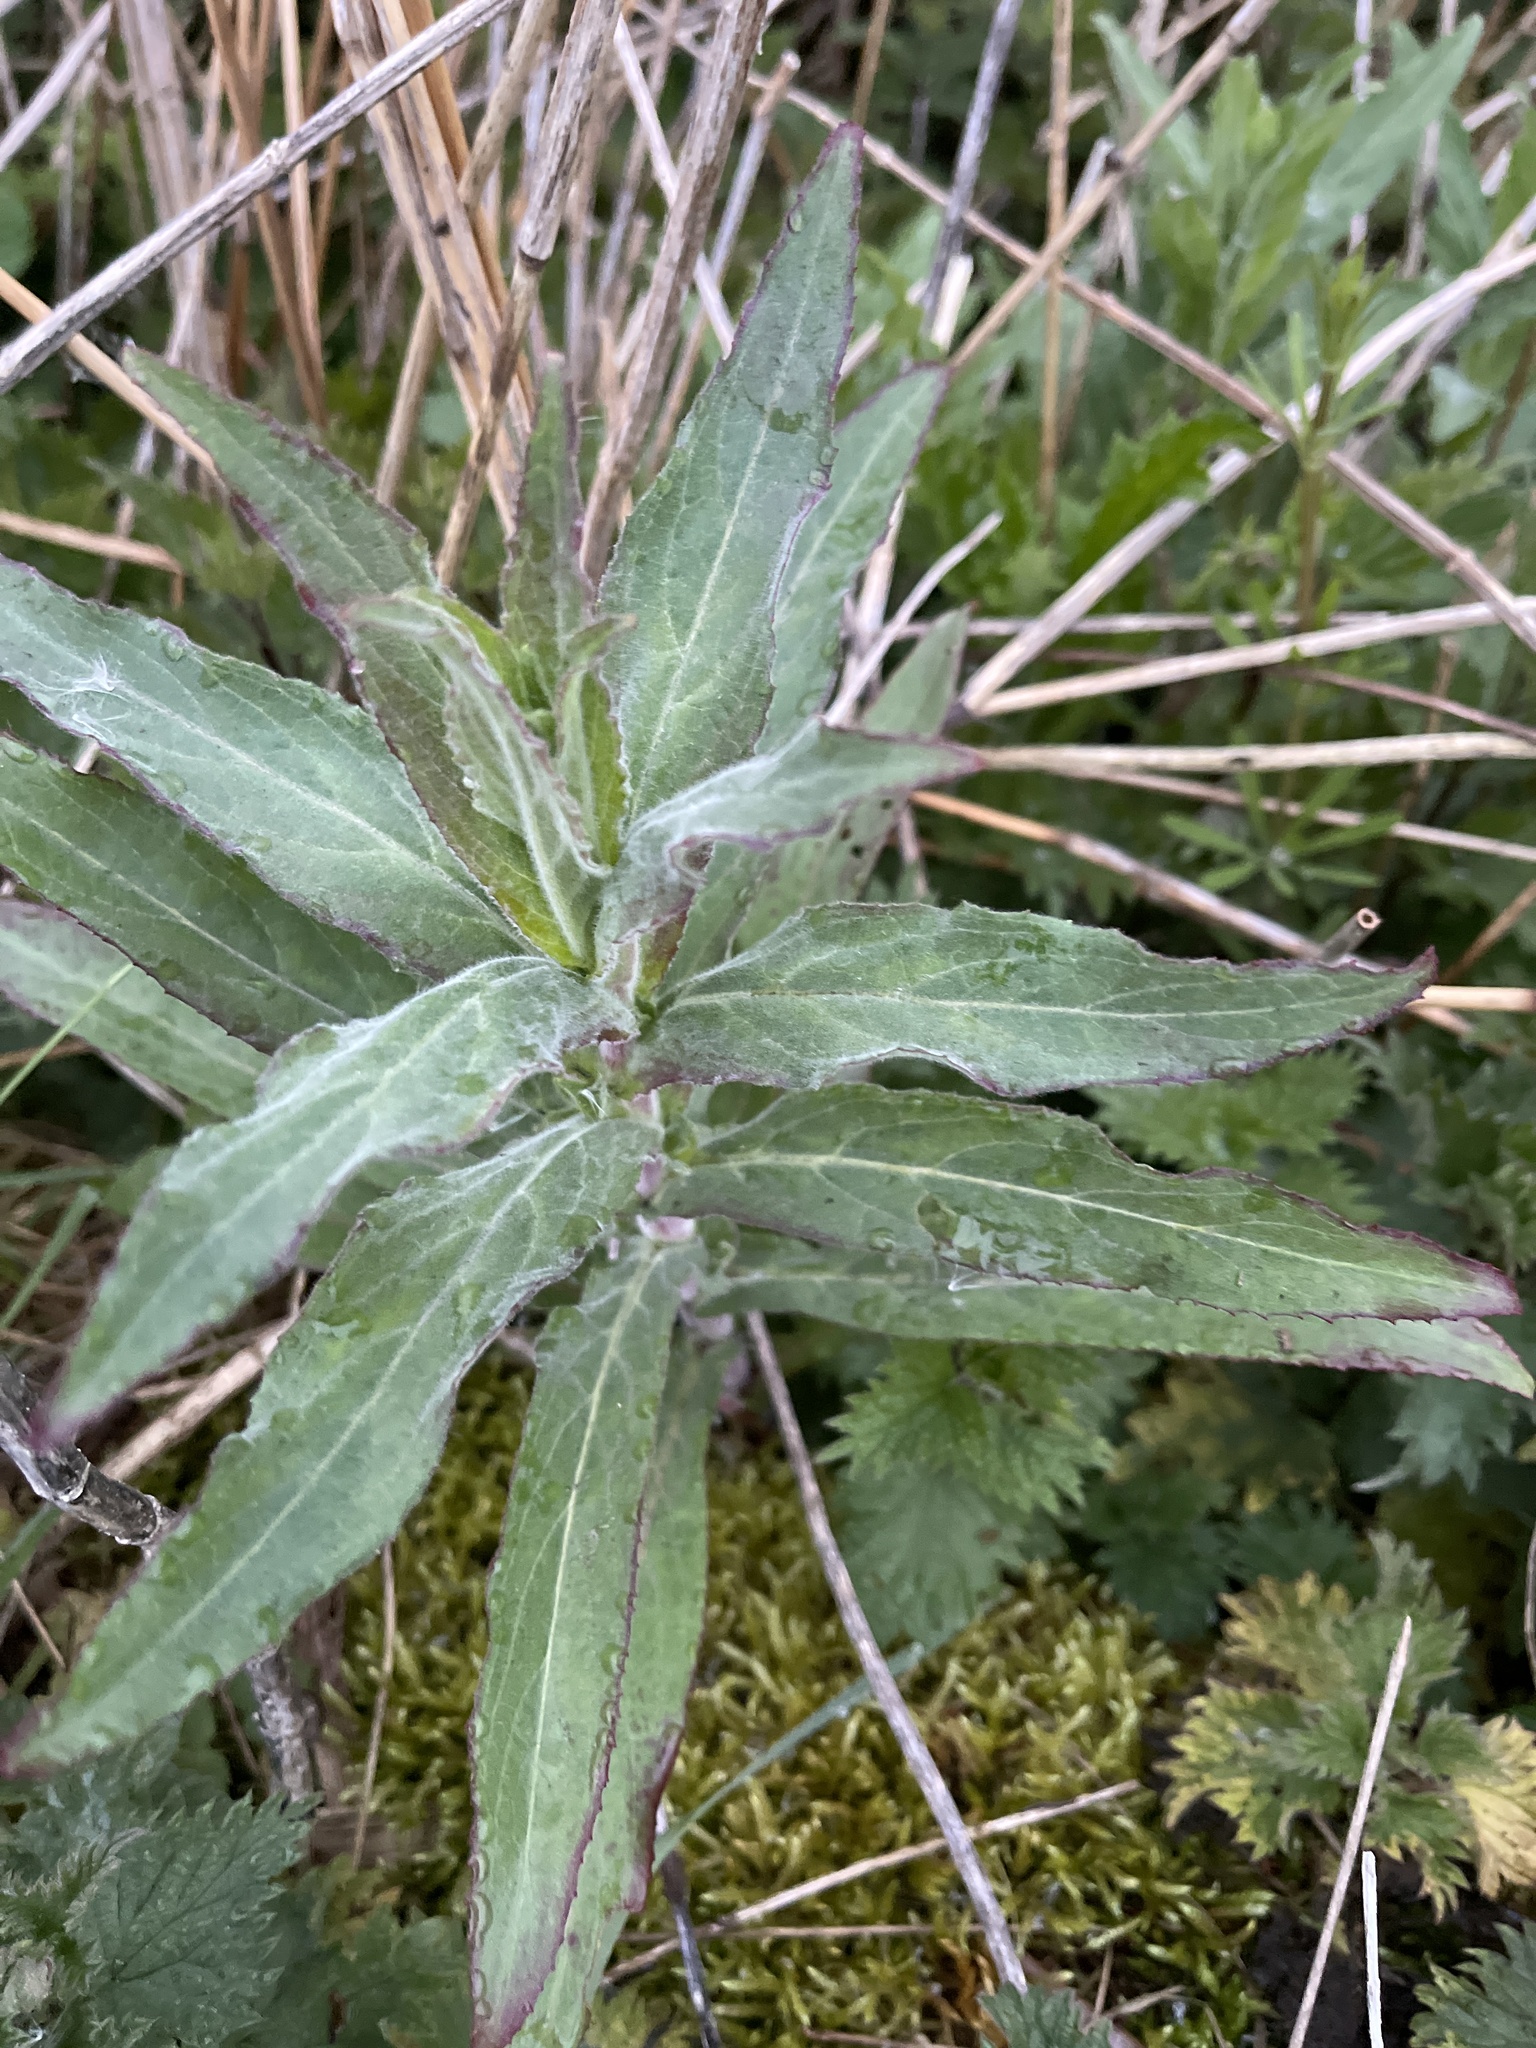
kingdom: Plantae
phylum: Tracheophyta
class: Magnoliopsida
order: Myrtales
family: Onagraceae
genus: Epilobium
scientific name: Epilobium hirsutum
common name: Great willowherb
